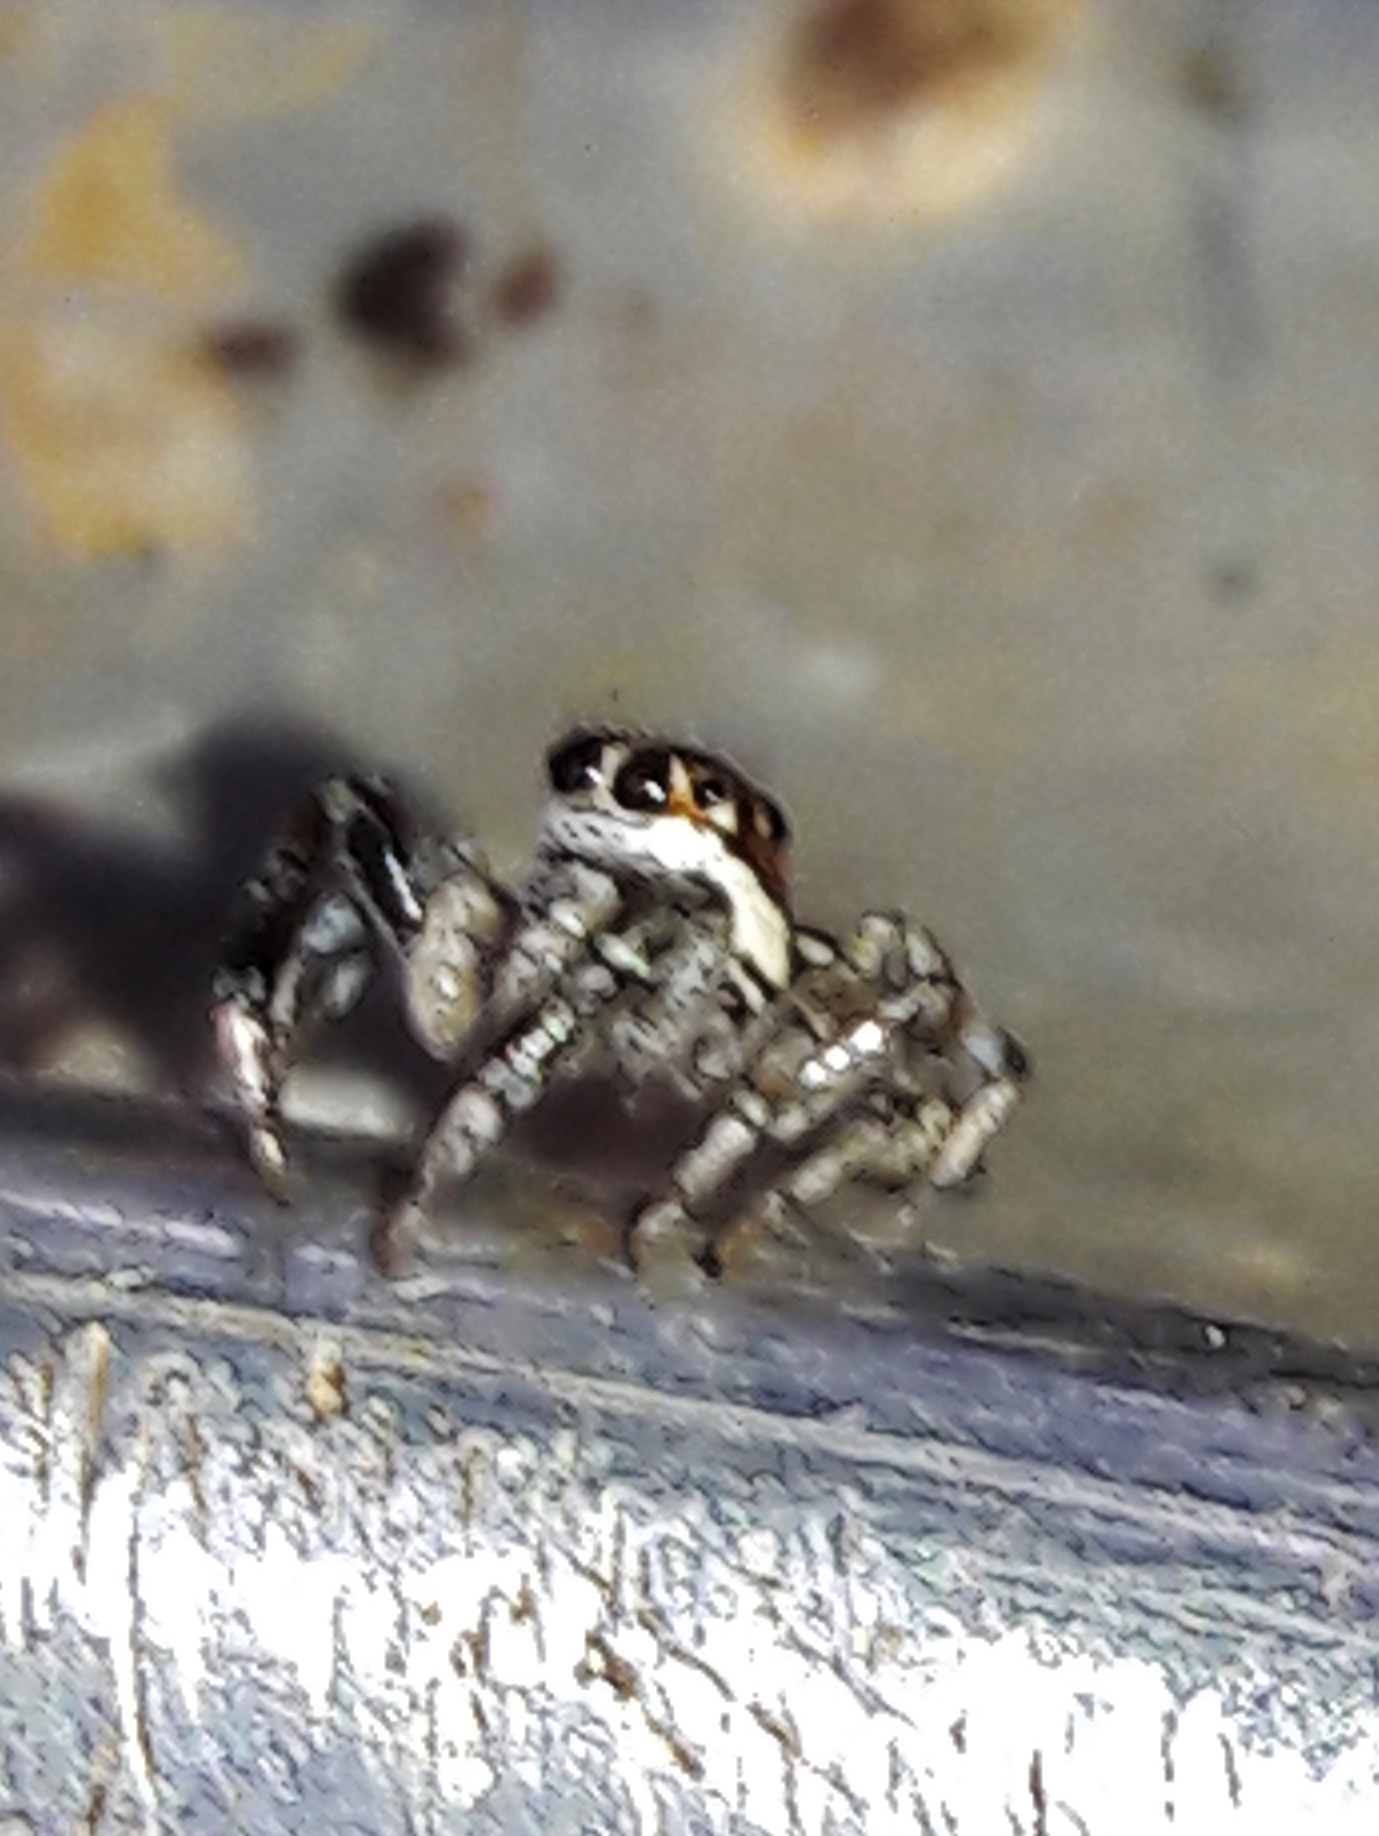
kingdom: Animalia
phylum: Arthropoda
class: Arachnida
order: Araneae
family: Salticidae
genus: Philira
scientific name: Philira micans
